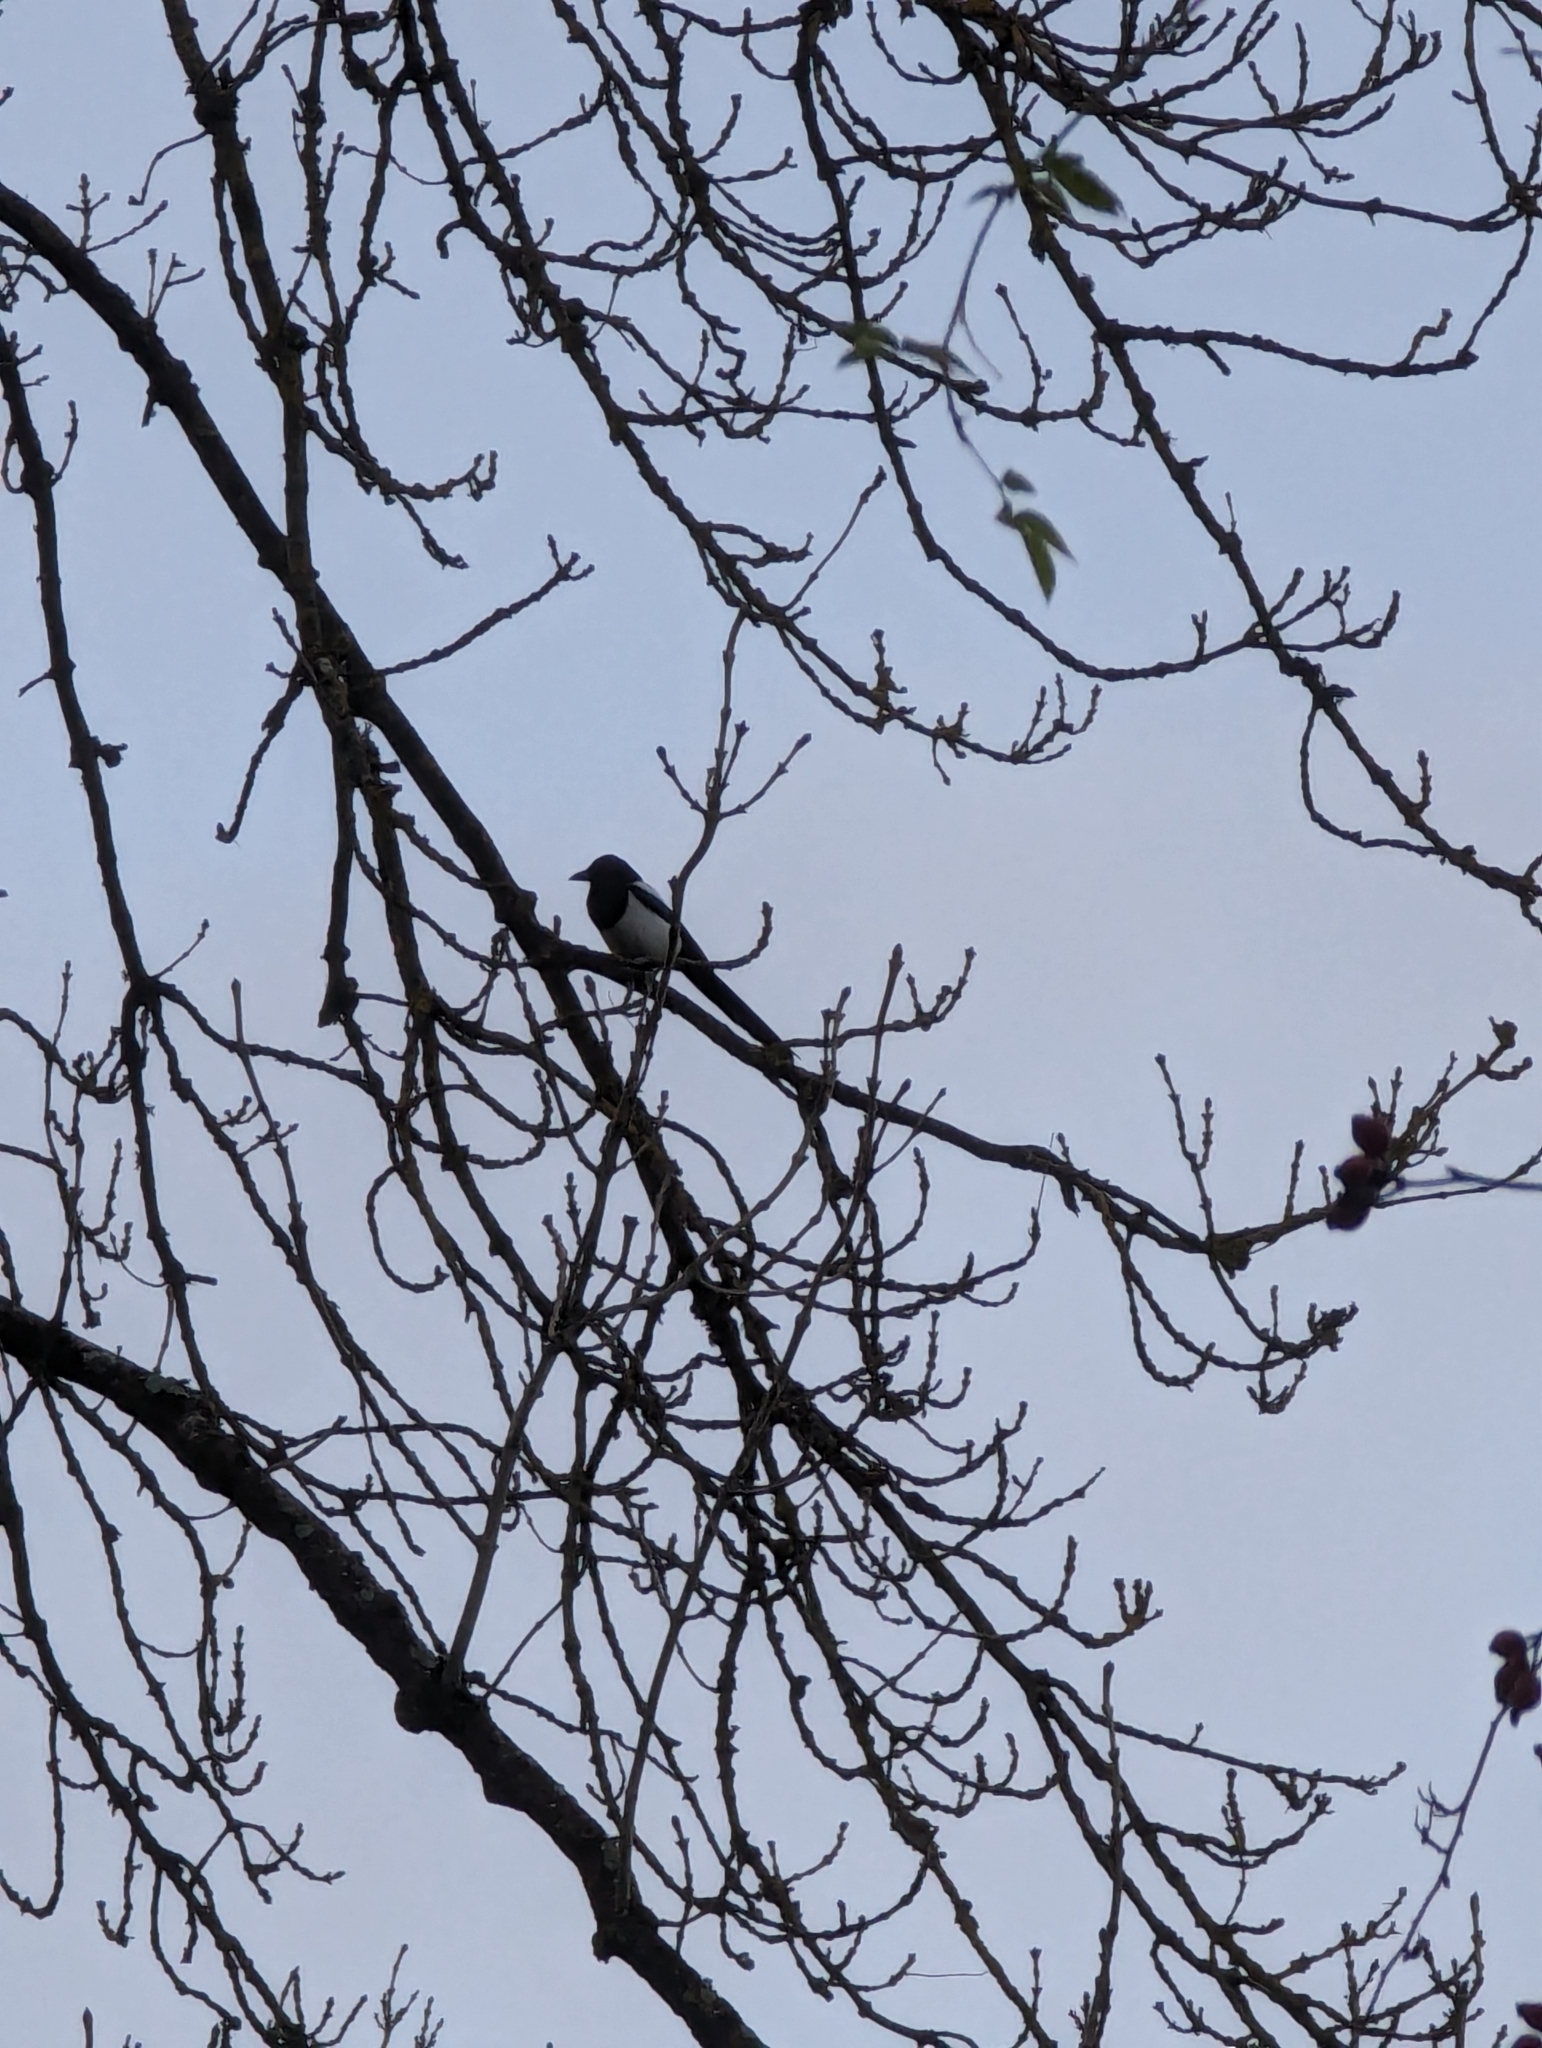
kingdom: Animalia
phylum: Chordata
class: Aves
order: Passeriformes
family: Corvidae
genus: Pica
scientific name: Pica pica
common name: Eurasian magpie
